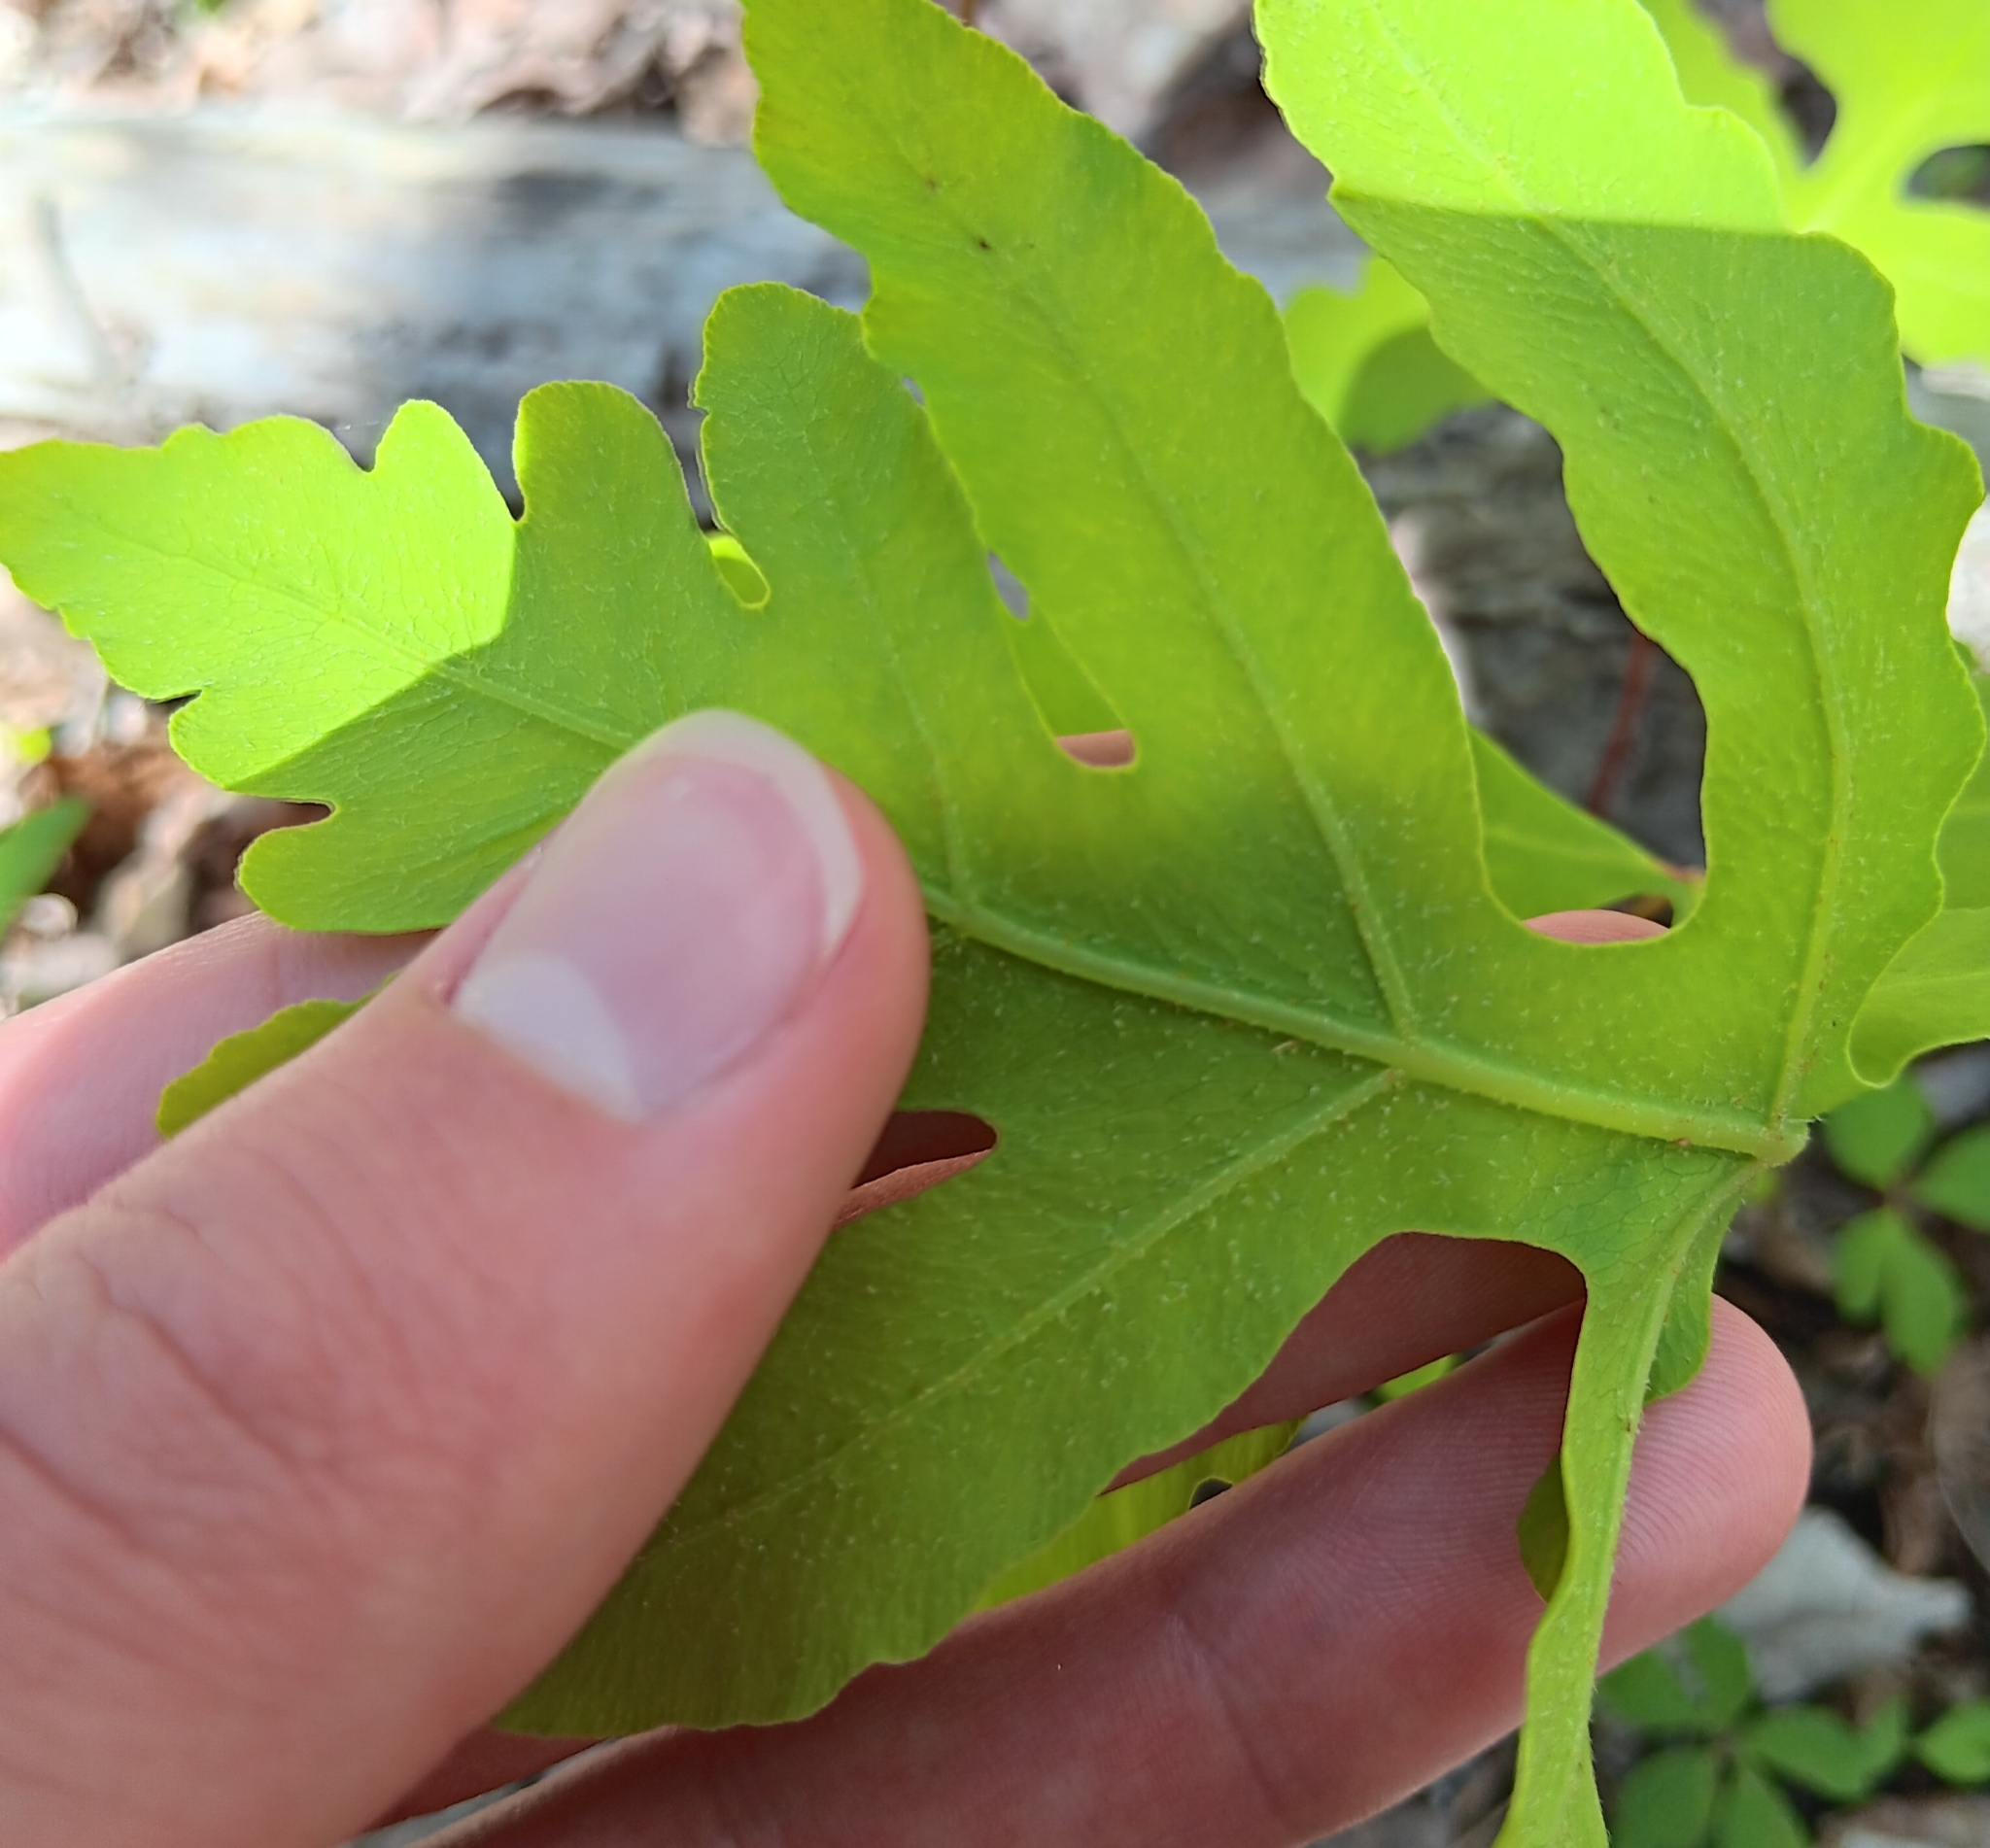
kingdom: Plantae
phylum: Tracheophyta
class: Polypodiopsida
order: Polypodiales
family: Onocleaceae
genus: Onoclea
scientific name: Onoclea sensibilis
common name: Sensitive fern
